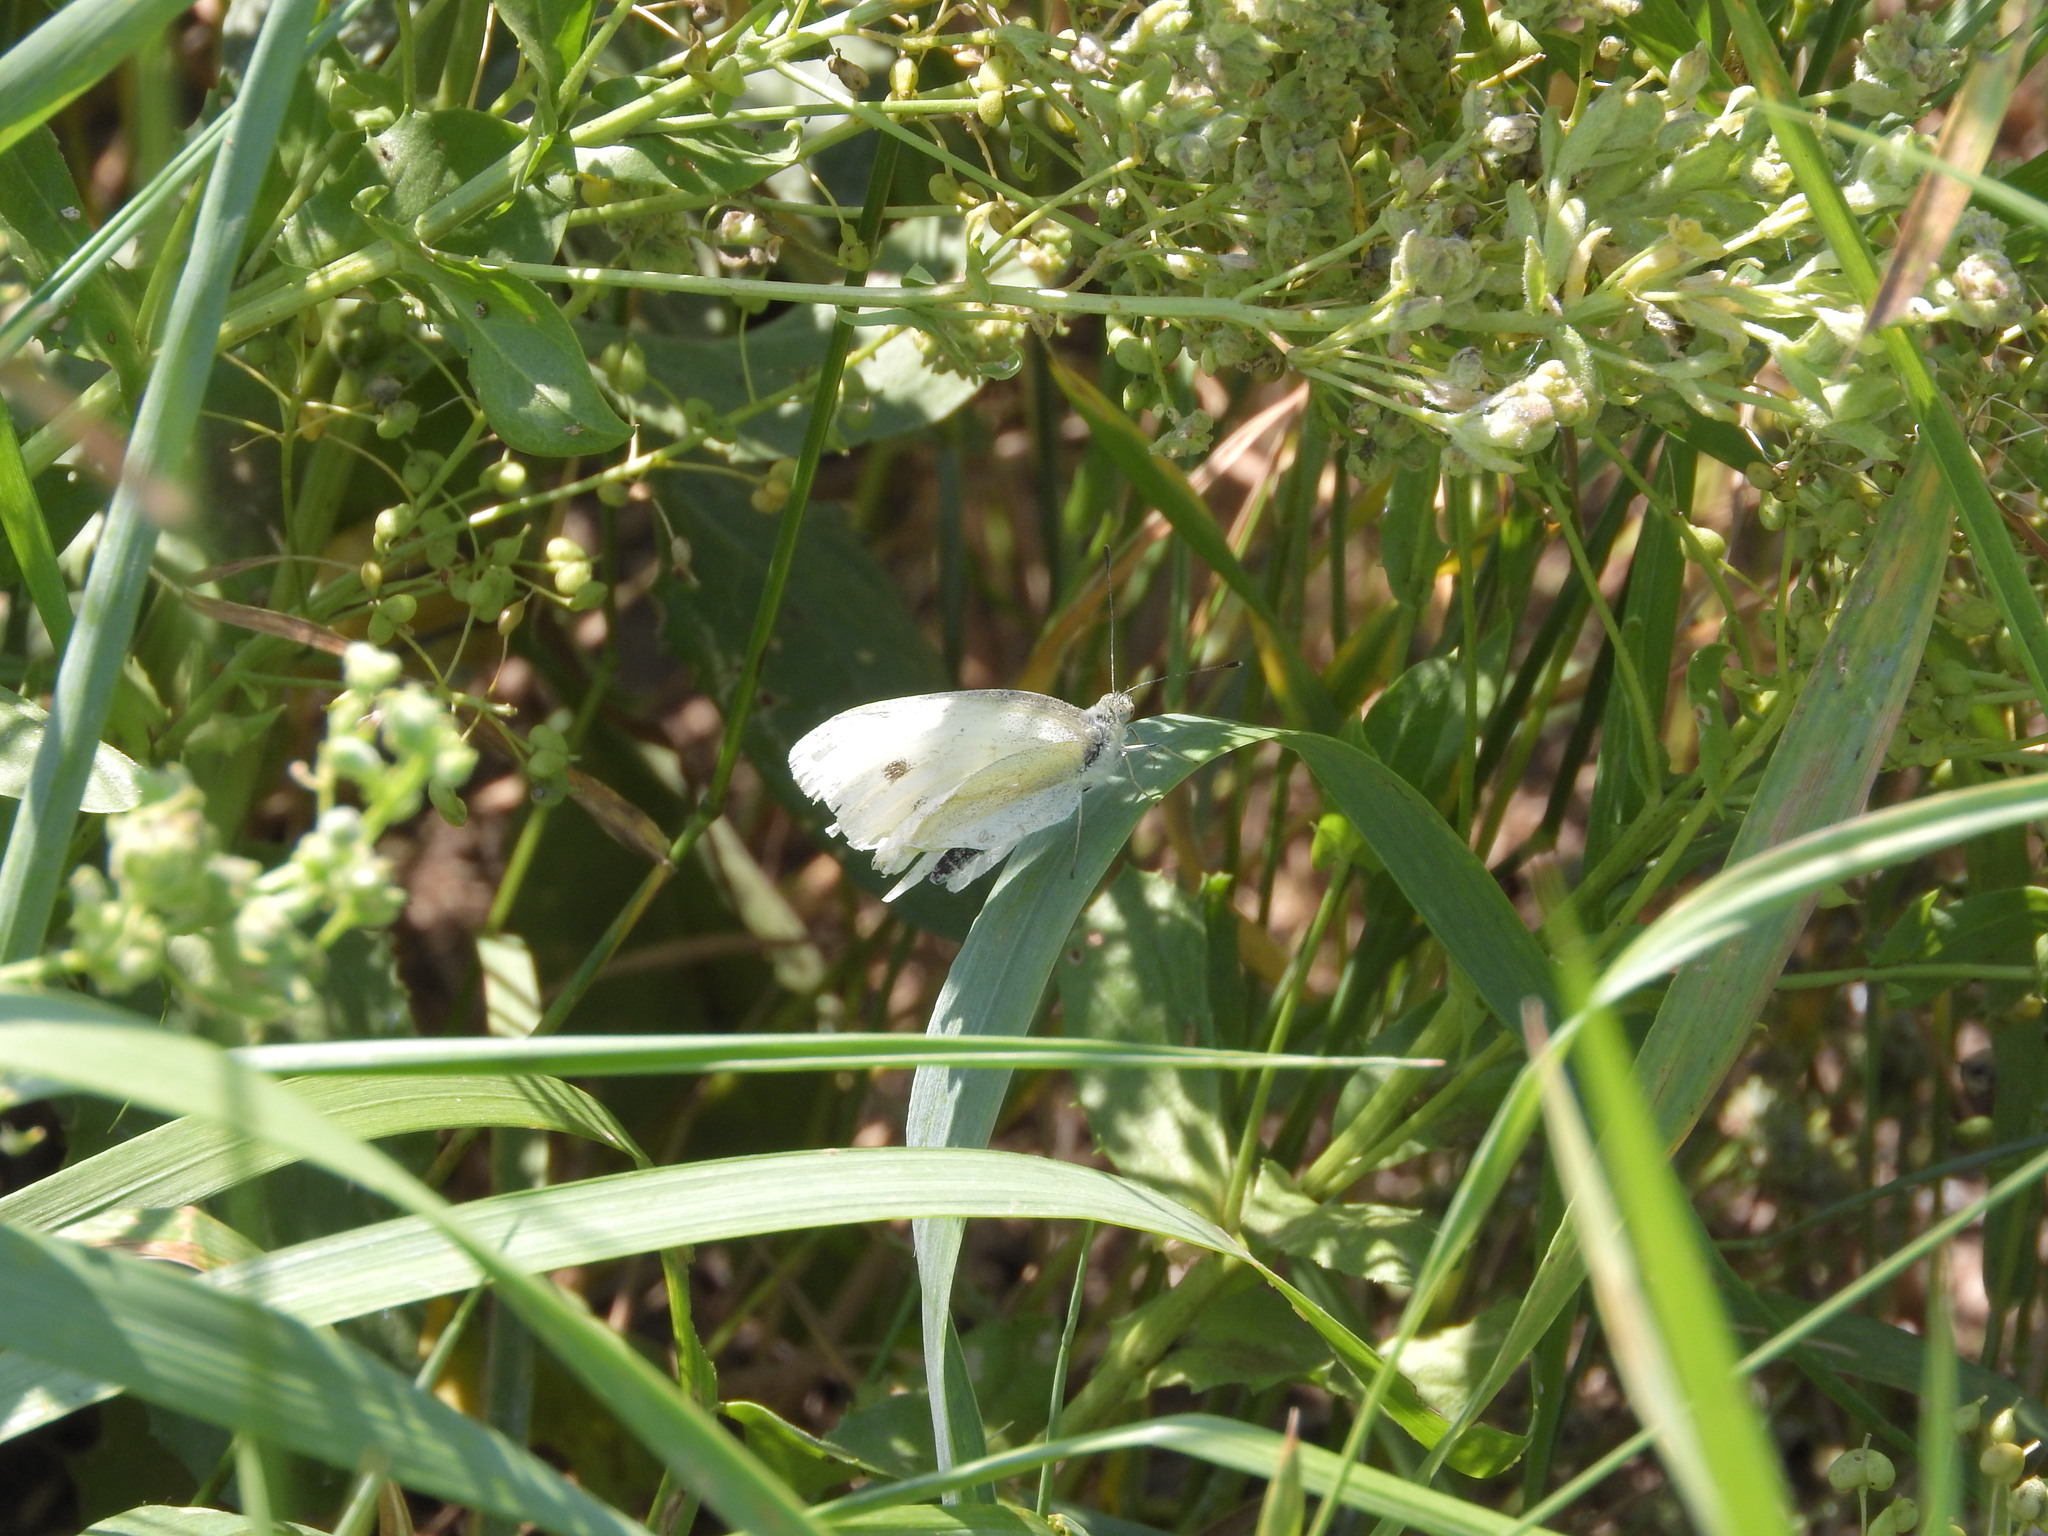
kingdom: Animalia
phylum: Arthropoda
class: Insecta
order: Lepidoptera
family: Pieridae
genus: Pieris
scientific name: Pieris rapae
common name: Small white
